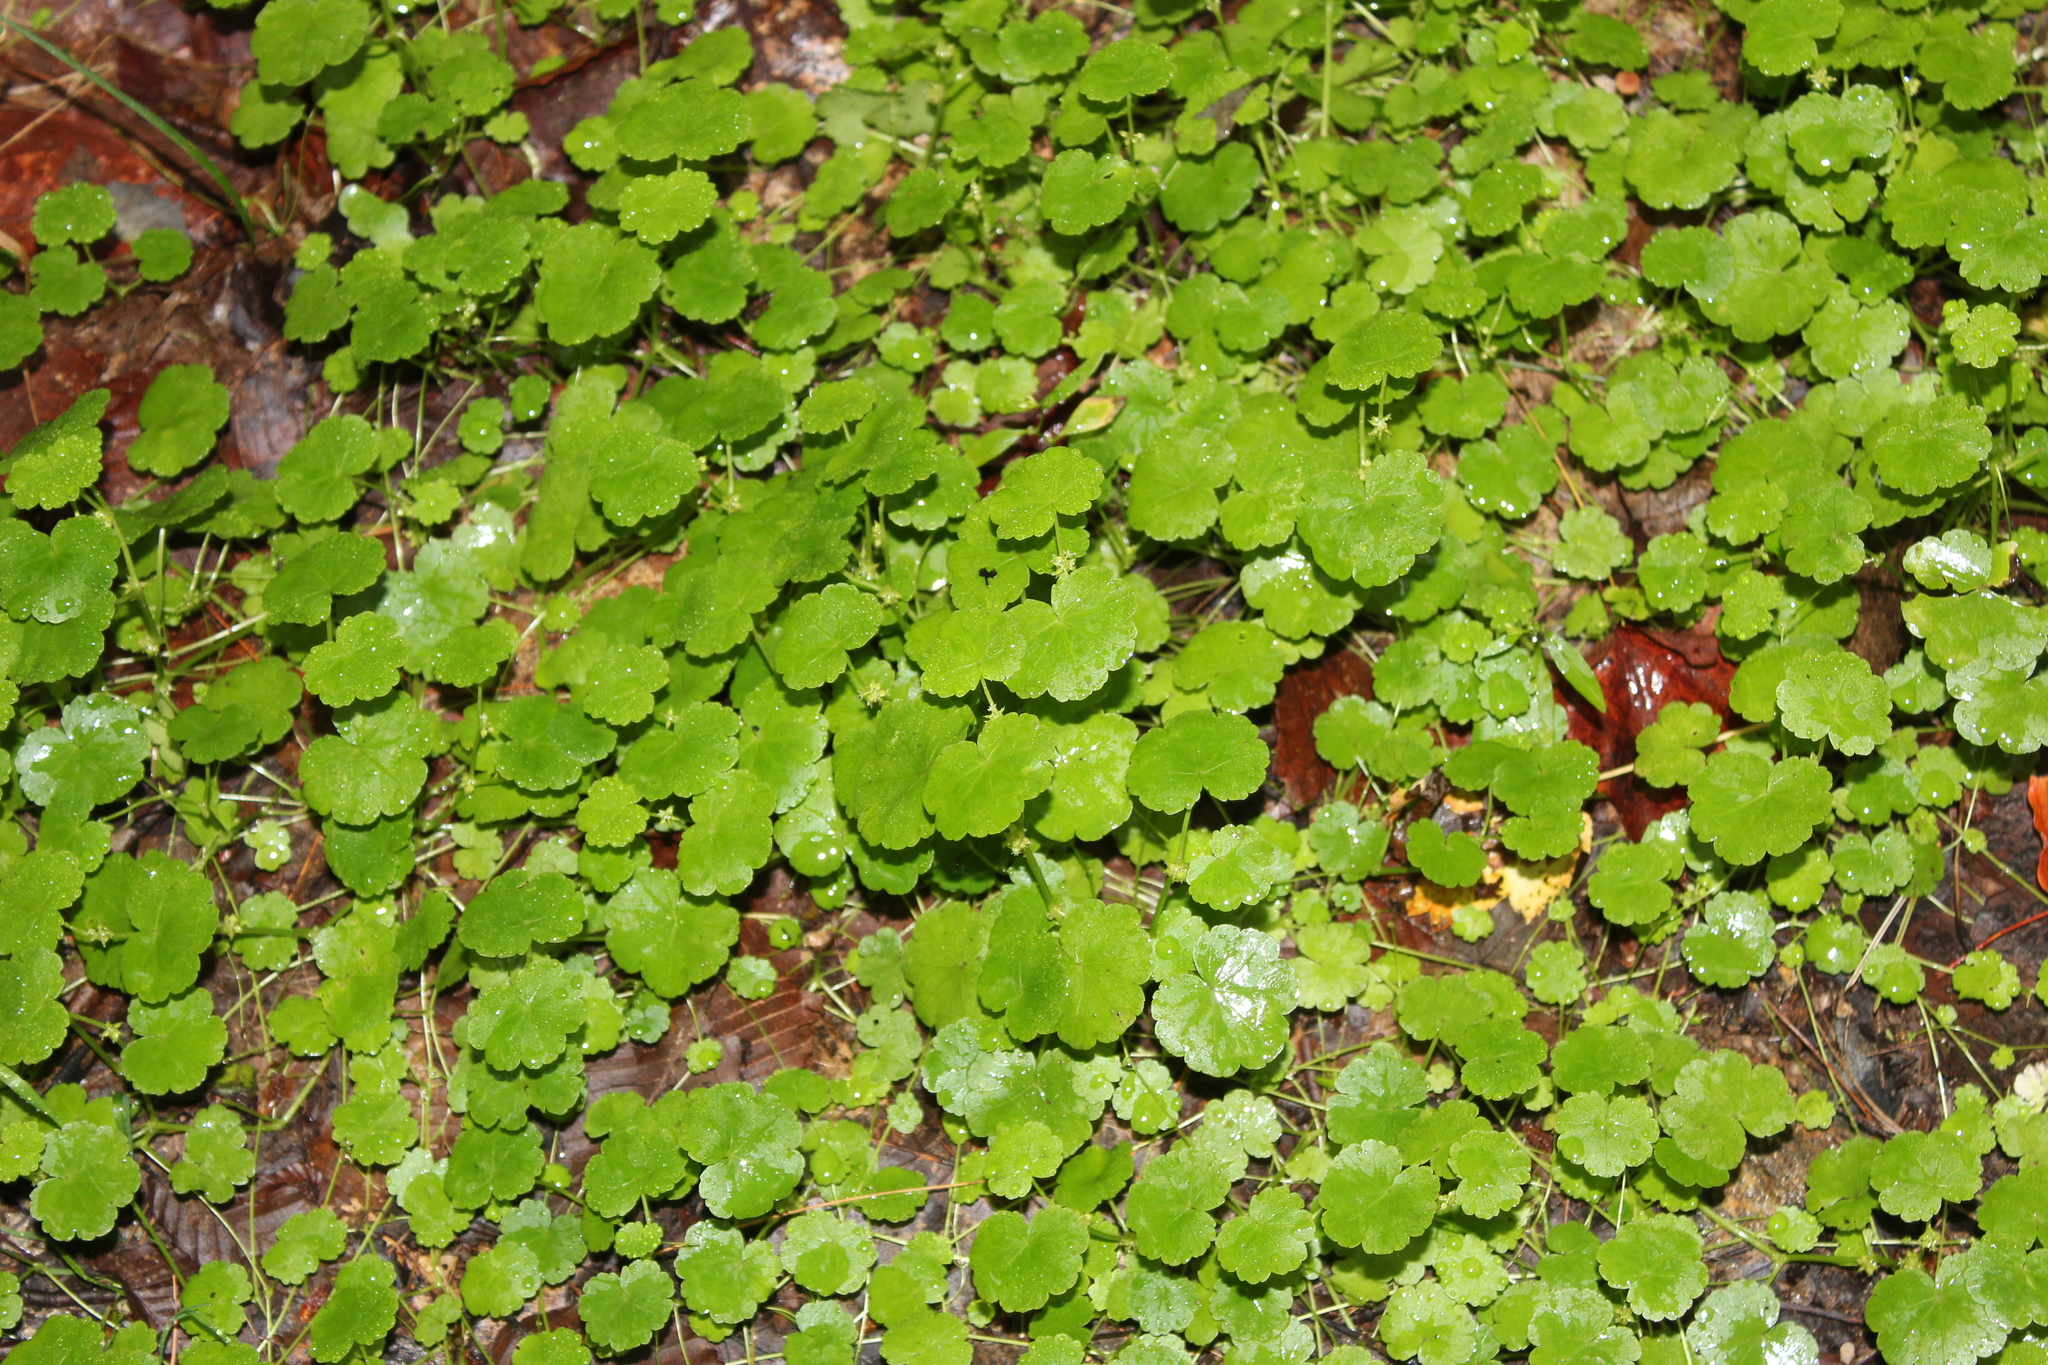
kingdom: Plantae
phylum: Tracheophyta
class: Magnoliopsida
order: Apiales
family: Araliaceae
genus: Hydrocotyle
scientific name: Hydrocotyle americana
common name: American water-pennywort
